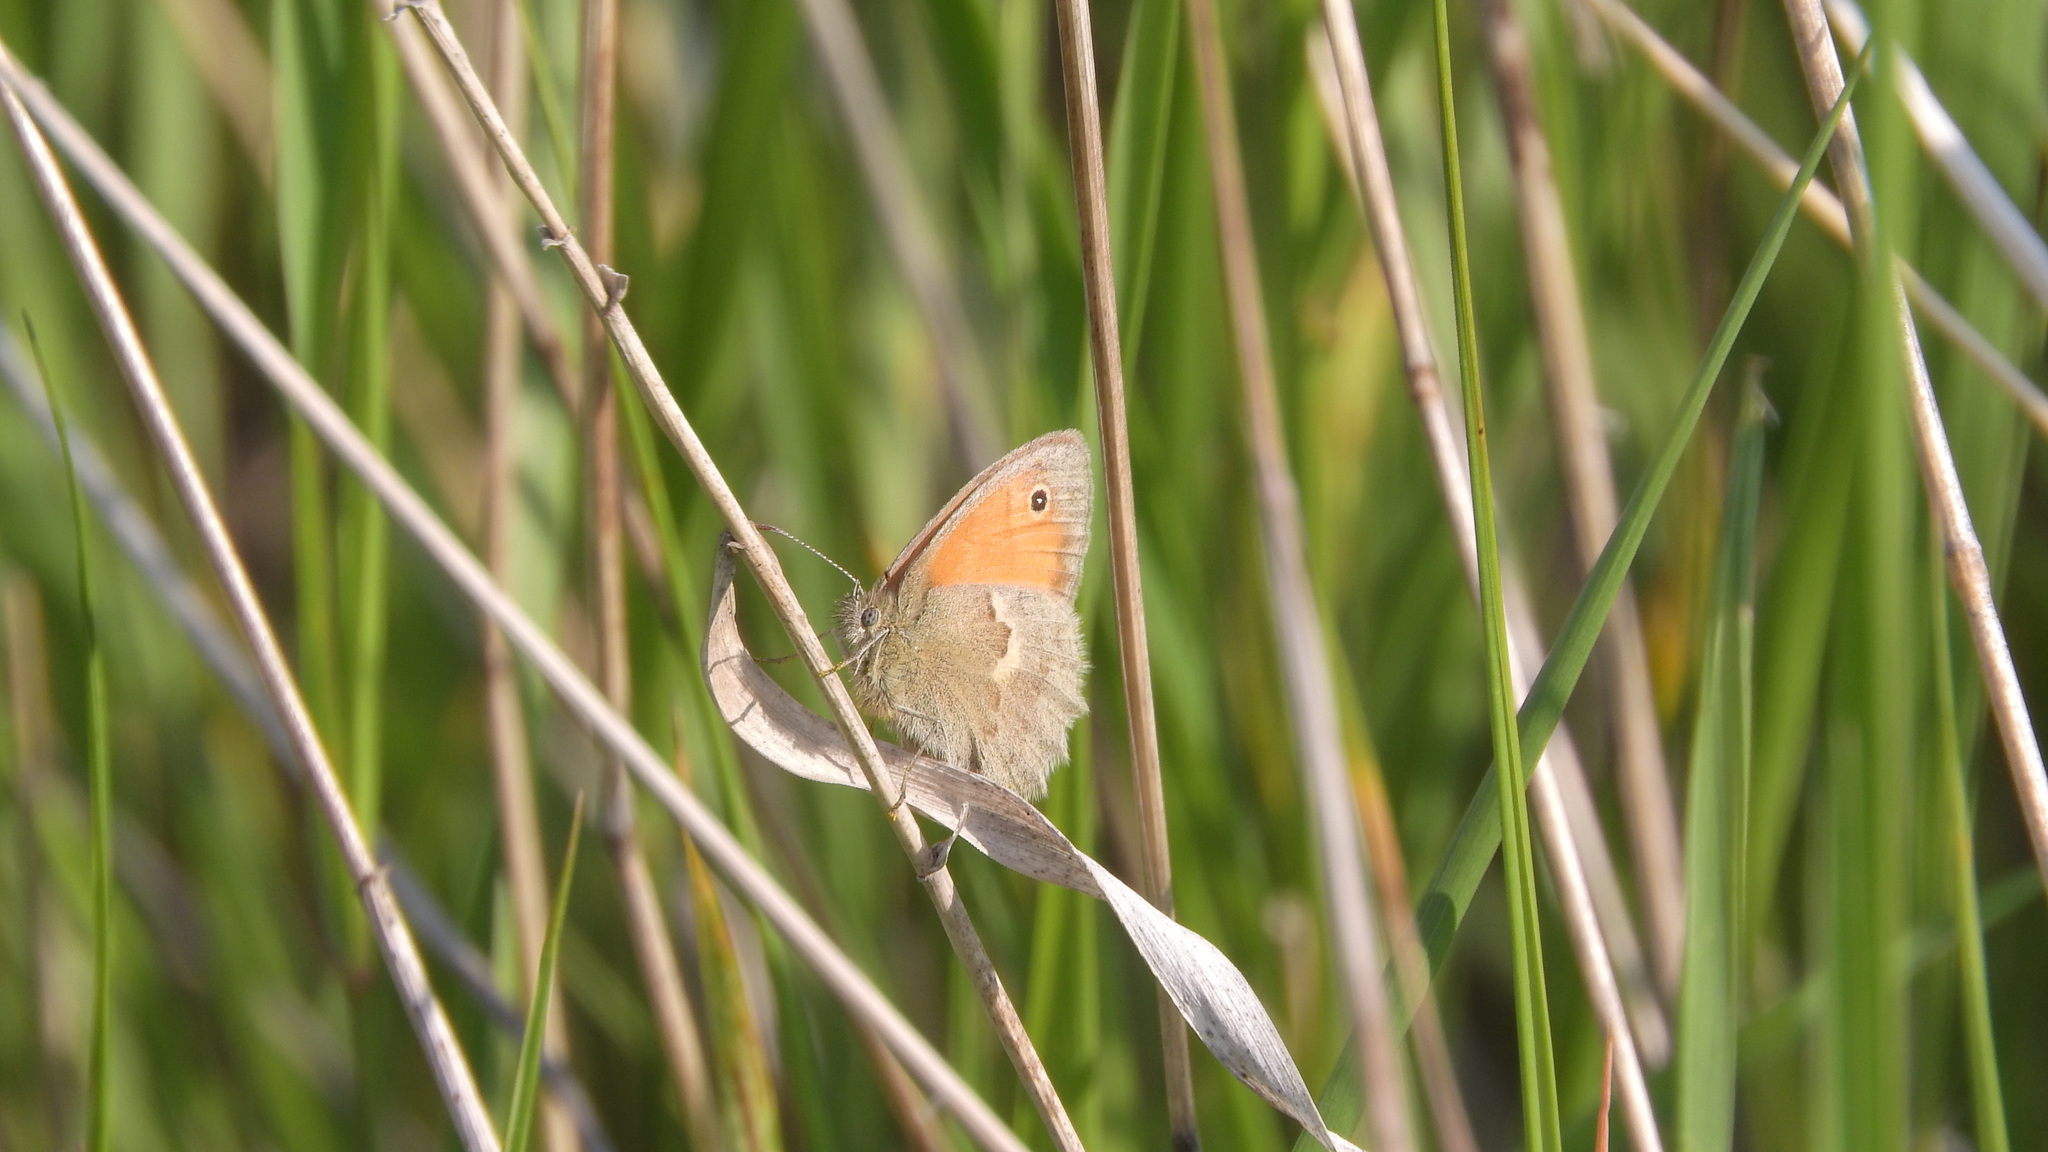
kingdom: Animalia
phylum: Arthropoda
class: Insecta
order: Lepidoptera
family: Nymphalidae
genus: Coenonympha
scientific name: Coenonympha pamphilus
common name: Small heath
